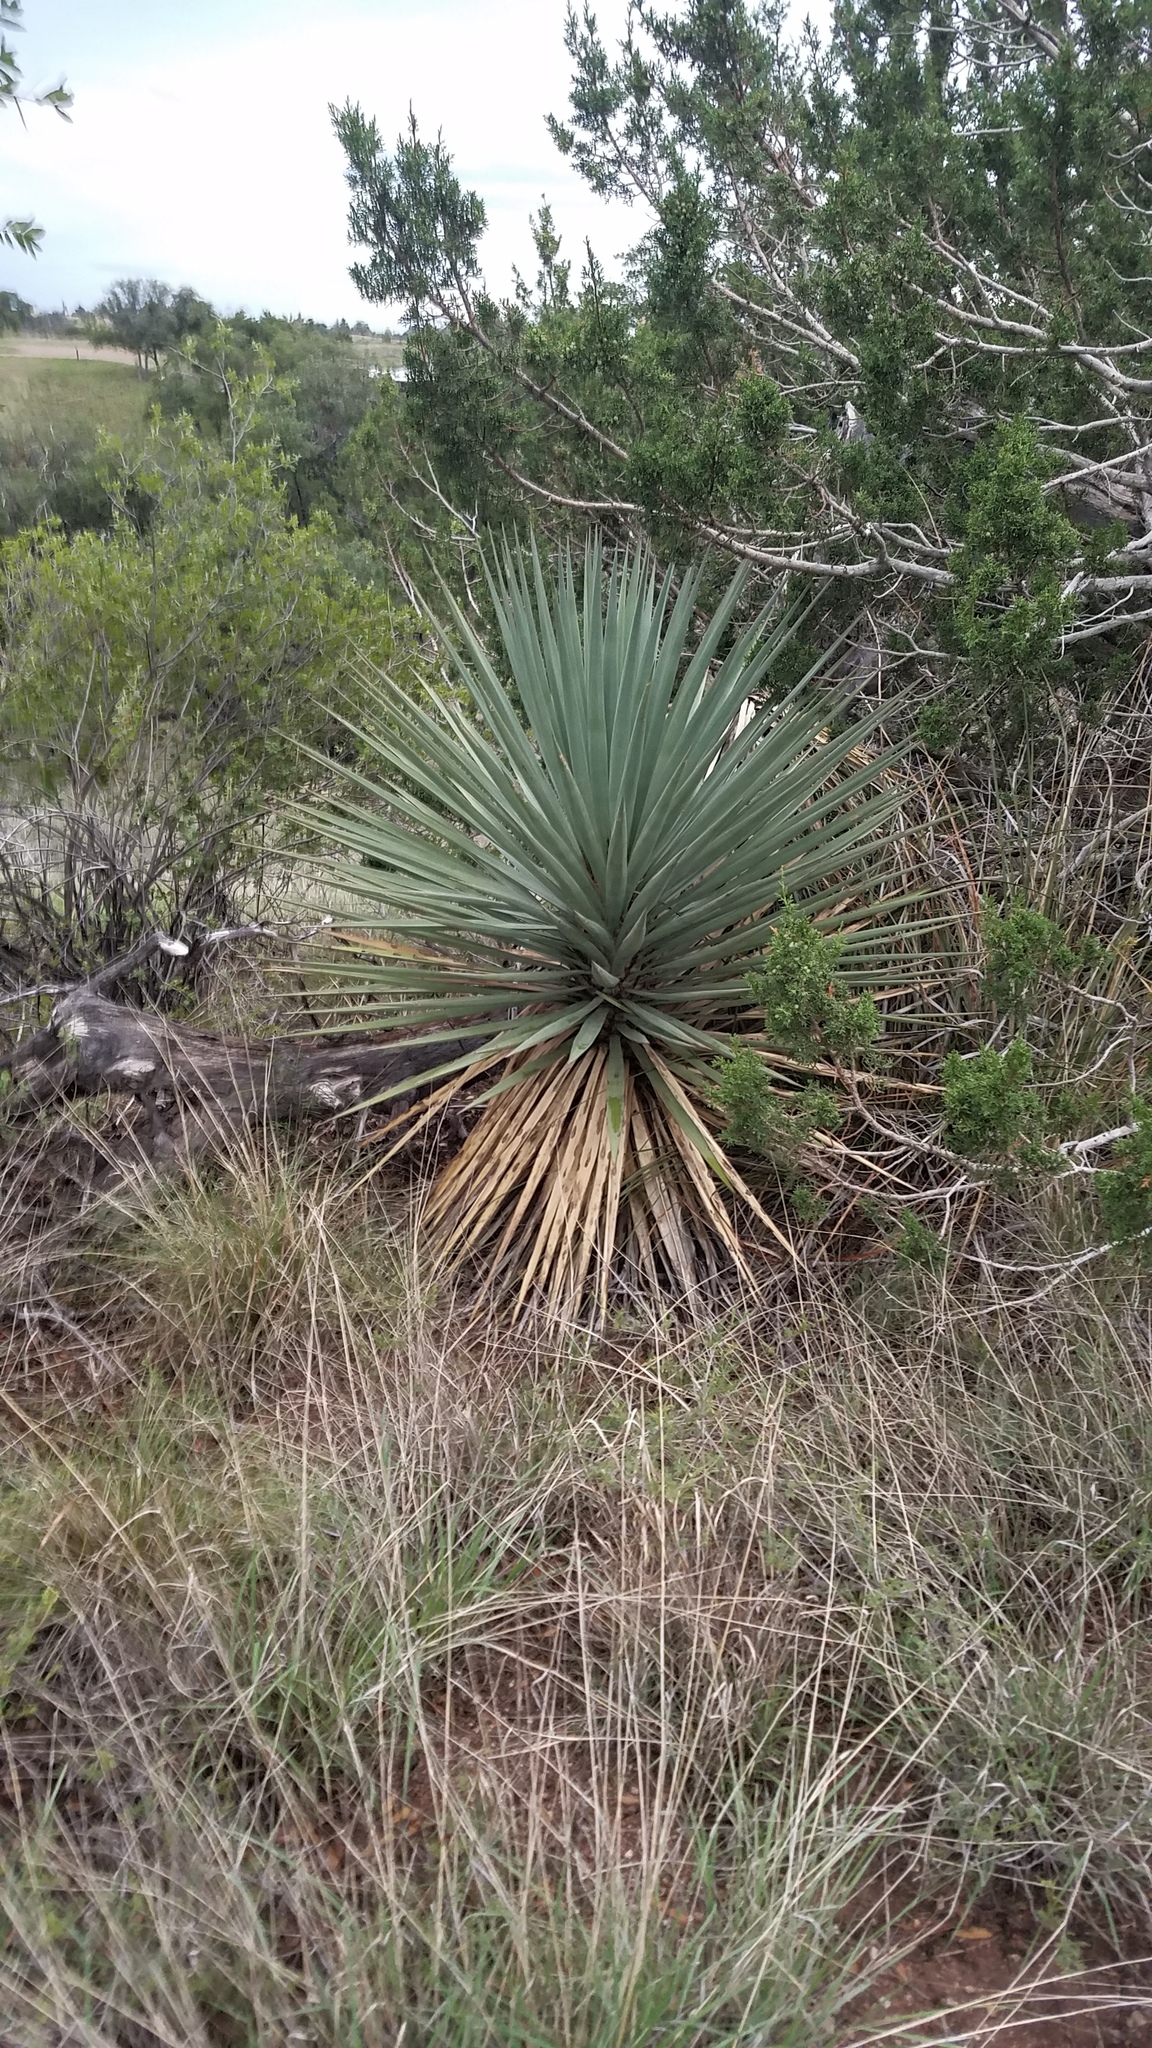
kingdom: Plantae
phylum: Tracheophyta
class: Liliopsida
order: Asparagales
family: Asparagaceae
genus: Yucca
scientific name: Yucca madrensis
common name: Hoary yucca
